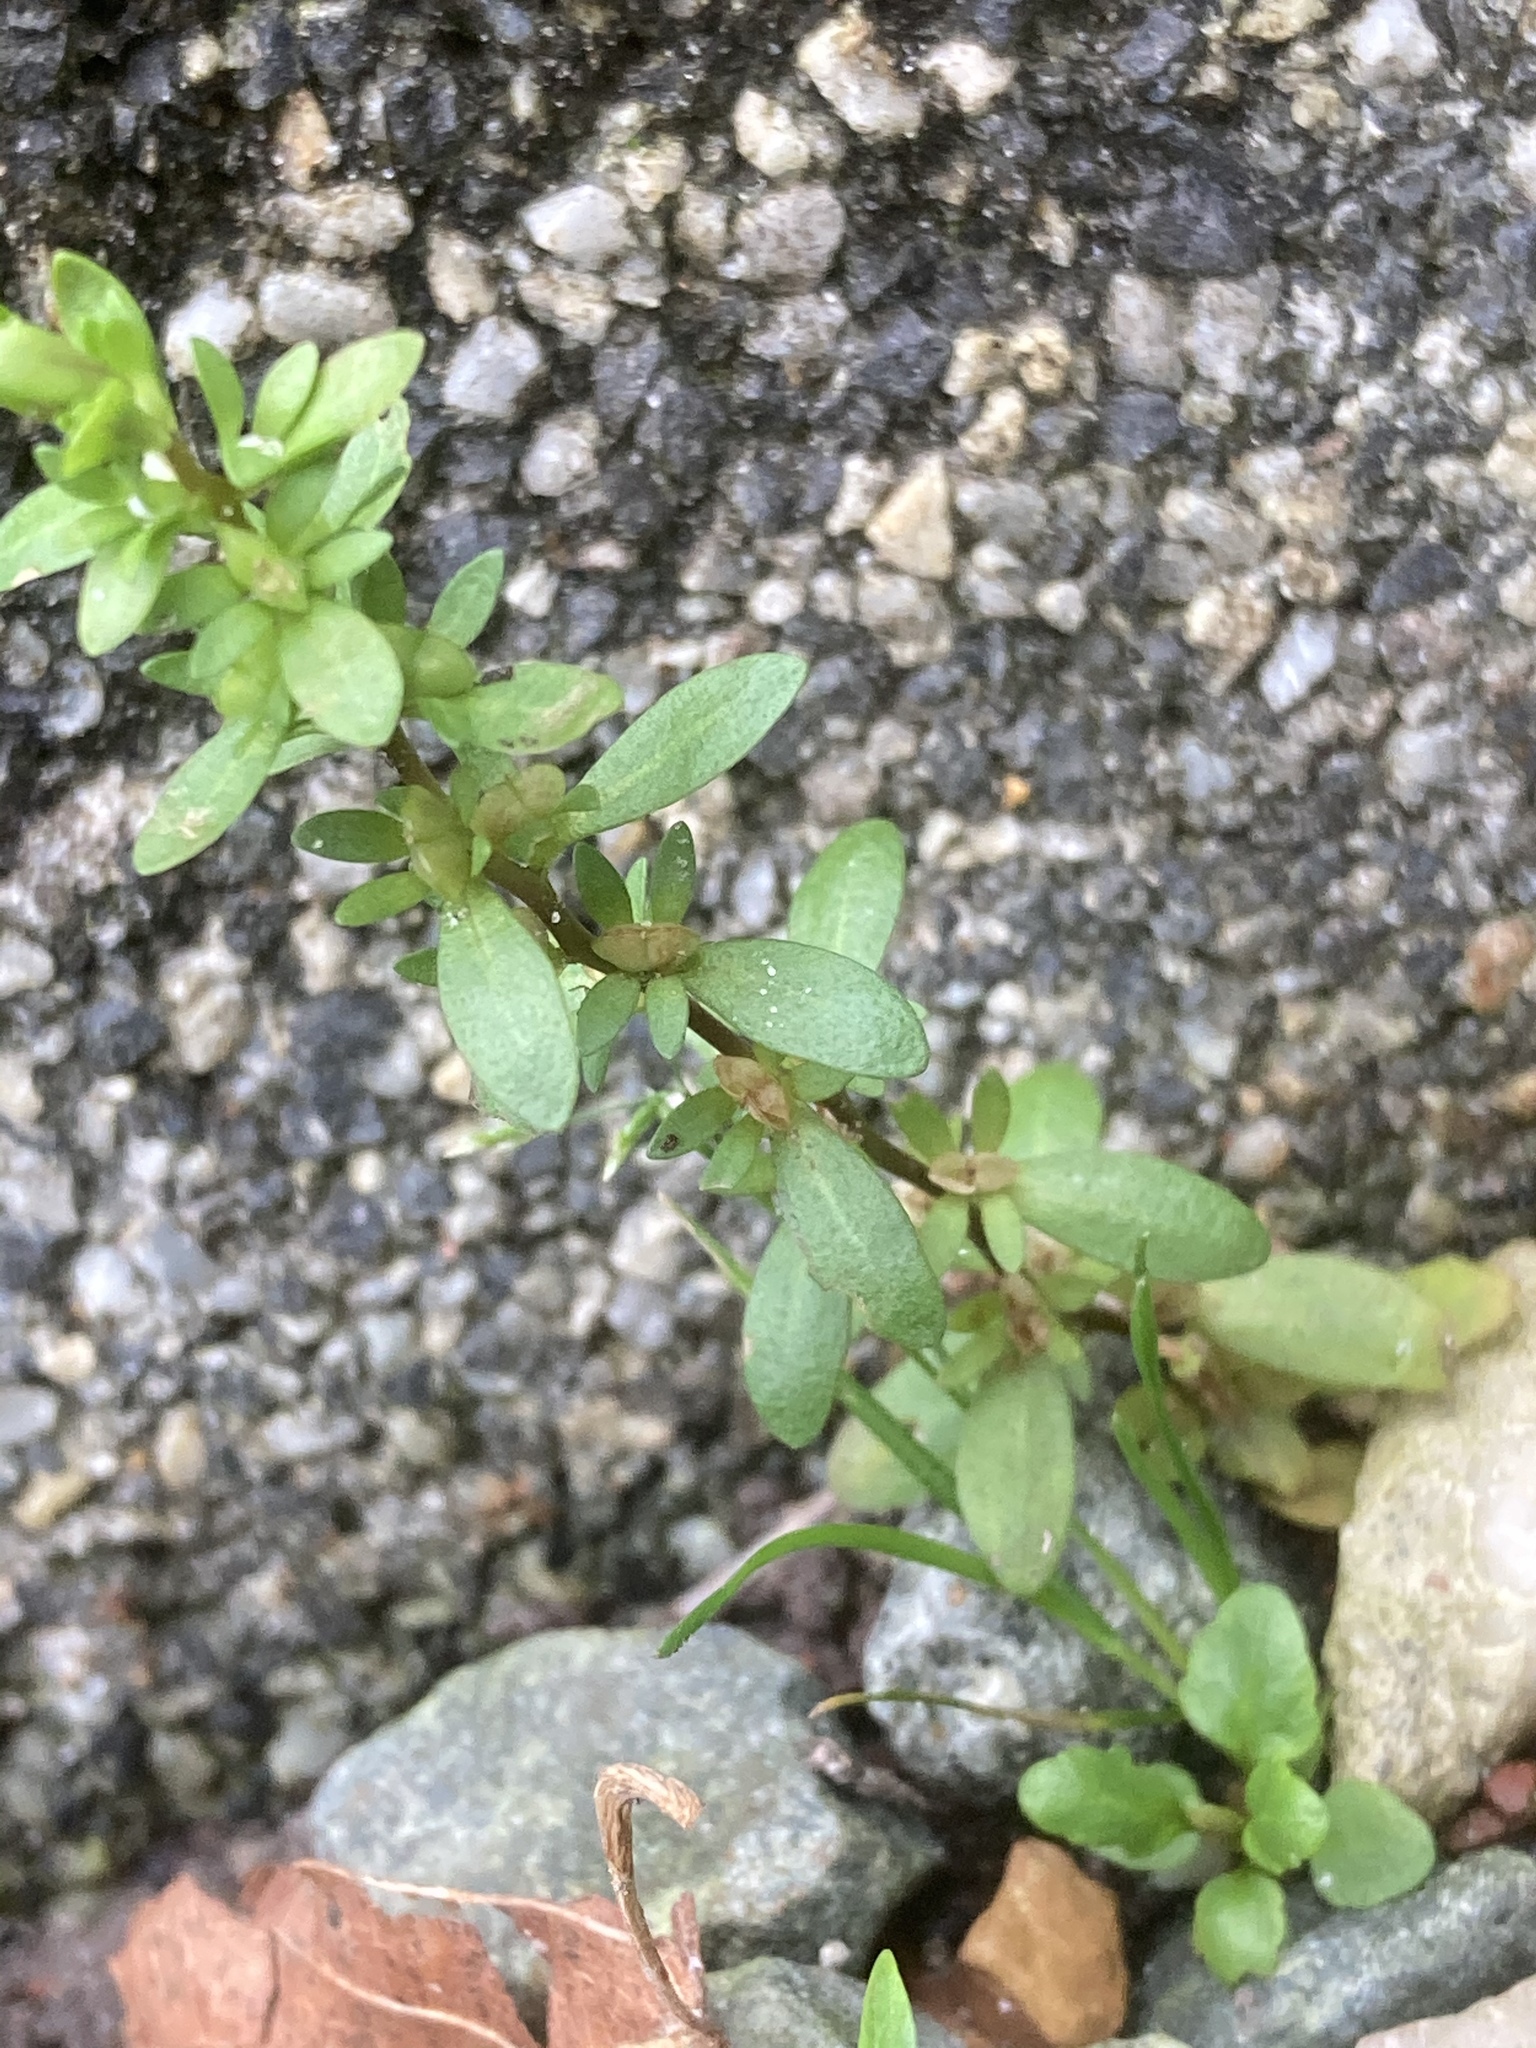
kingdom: Plantae
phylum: Tracheophyta
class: Magnoliopsida
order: Lamiales
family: Plantaginaceae
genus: Veronica
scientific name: Veronica peregrina
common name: Neckweed
